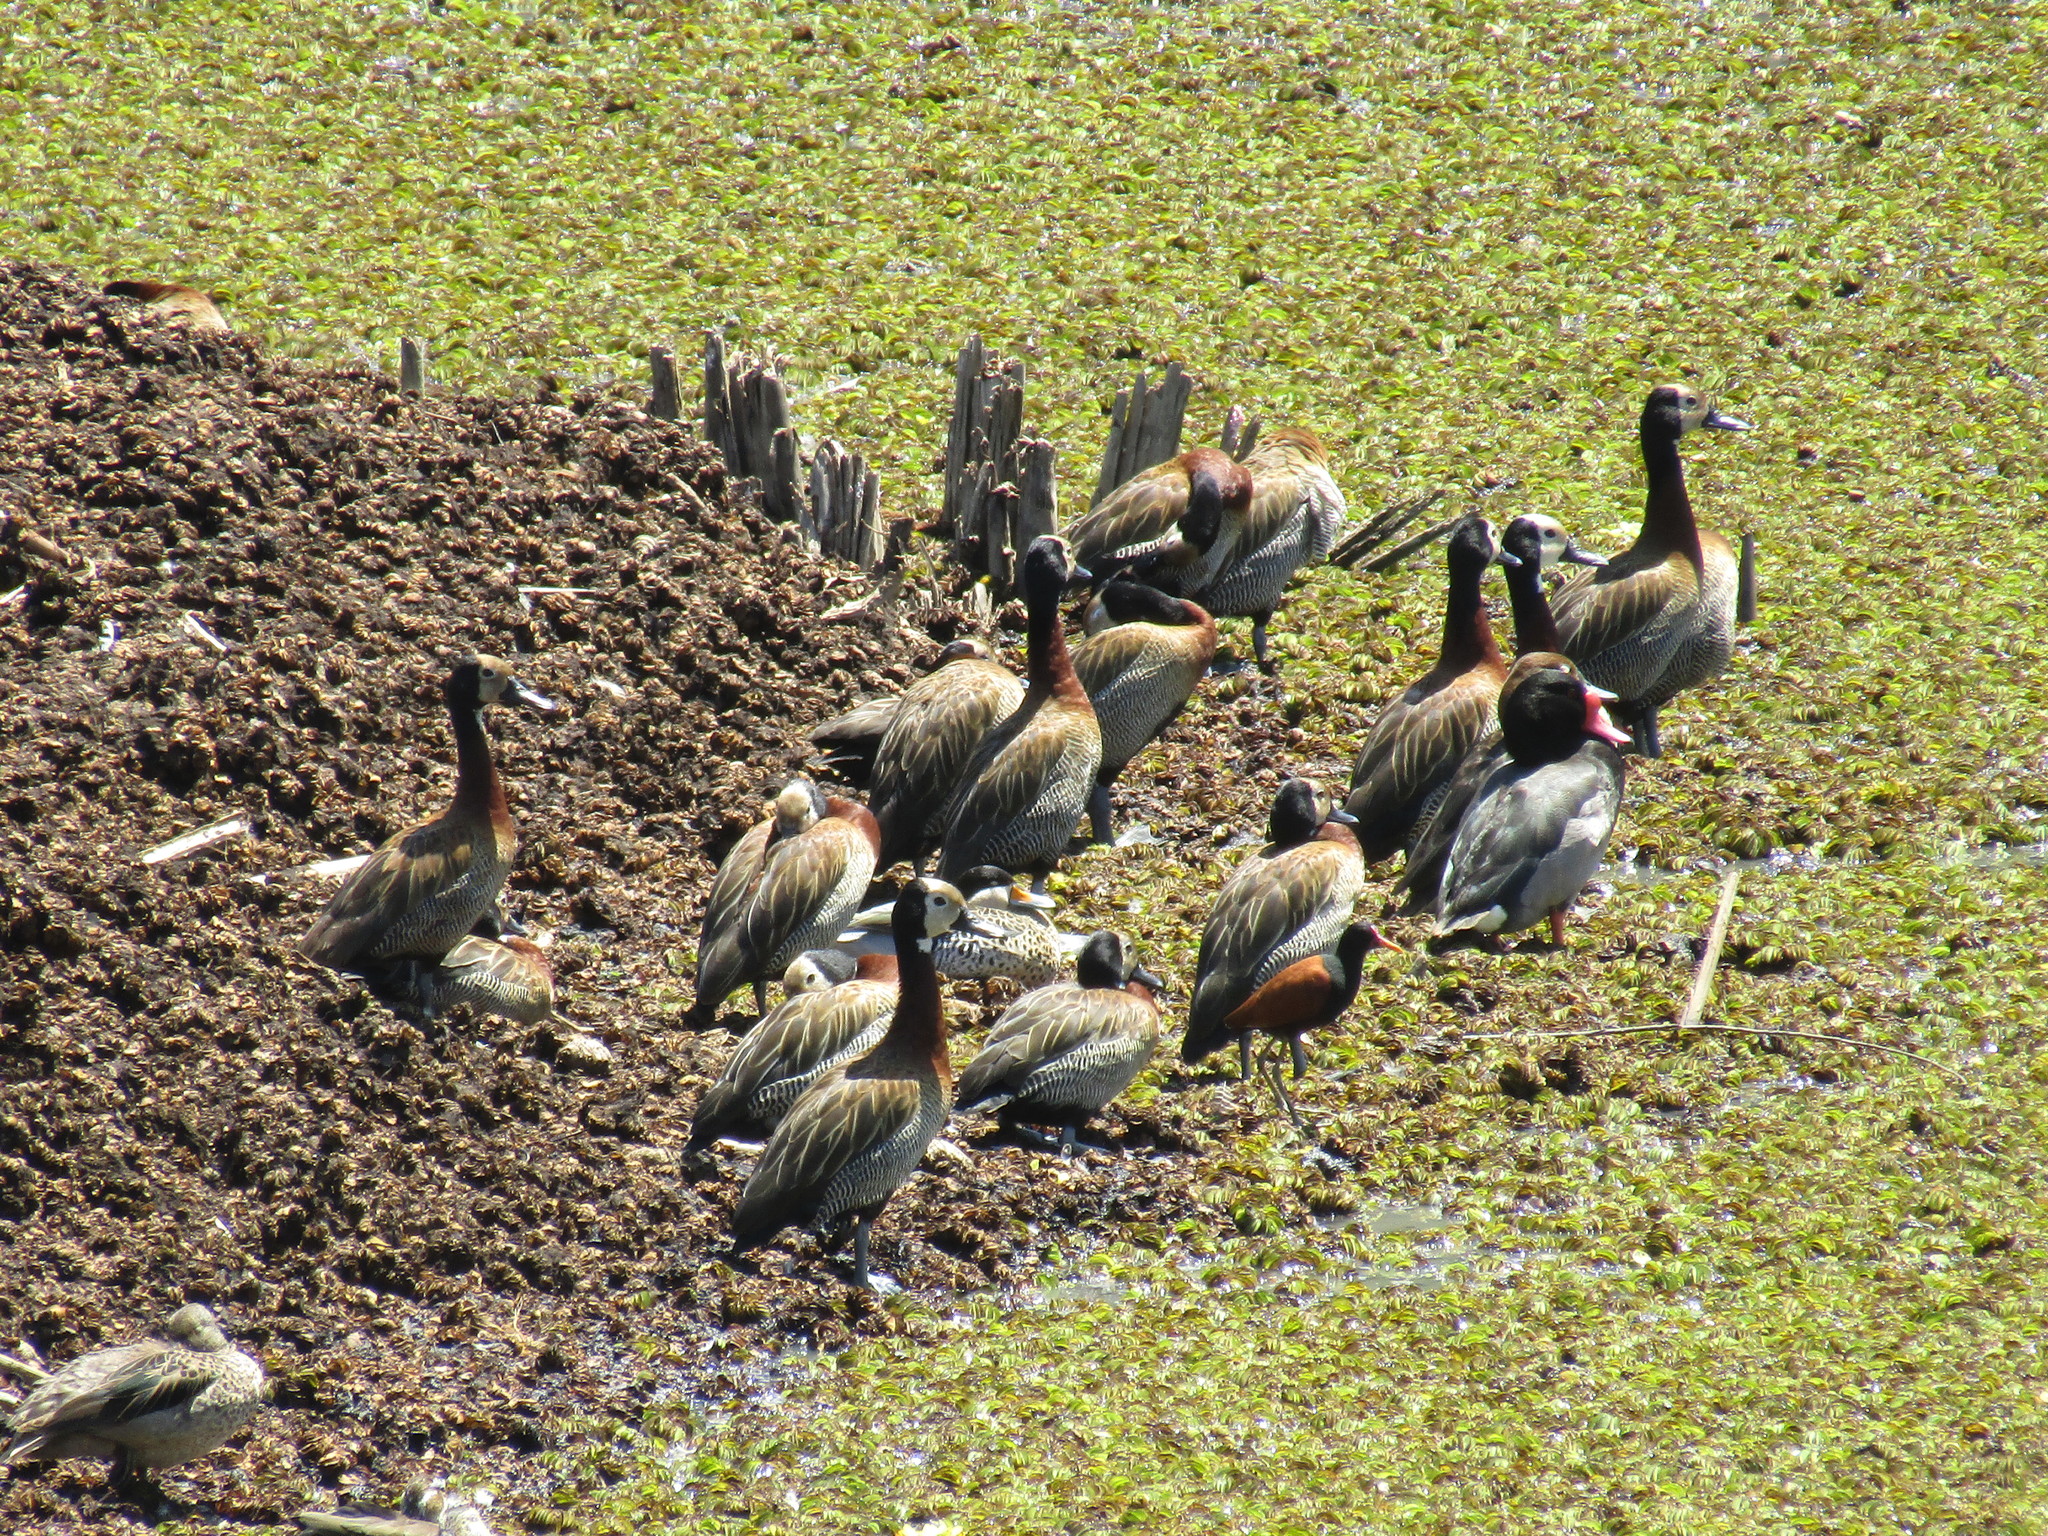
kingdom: Animalia
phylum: Chordata
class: Aves
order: Anseriformes
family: Anatidae
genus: Dendrocygna
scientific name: Dendrocygna viduata
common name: White-faced whistling duck
